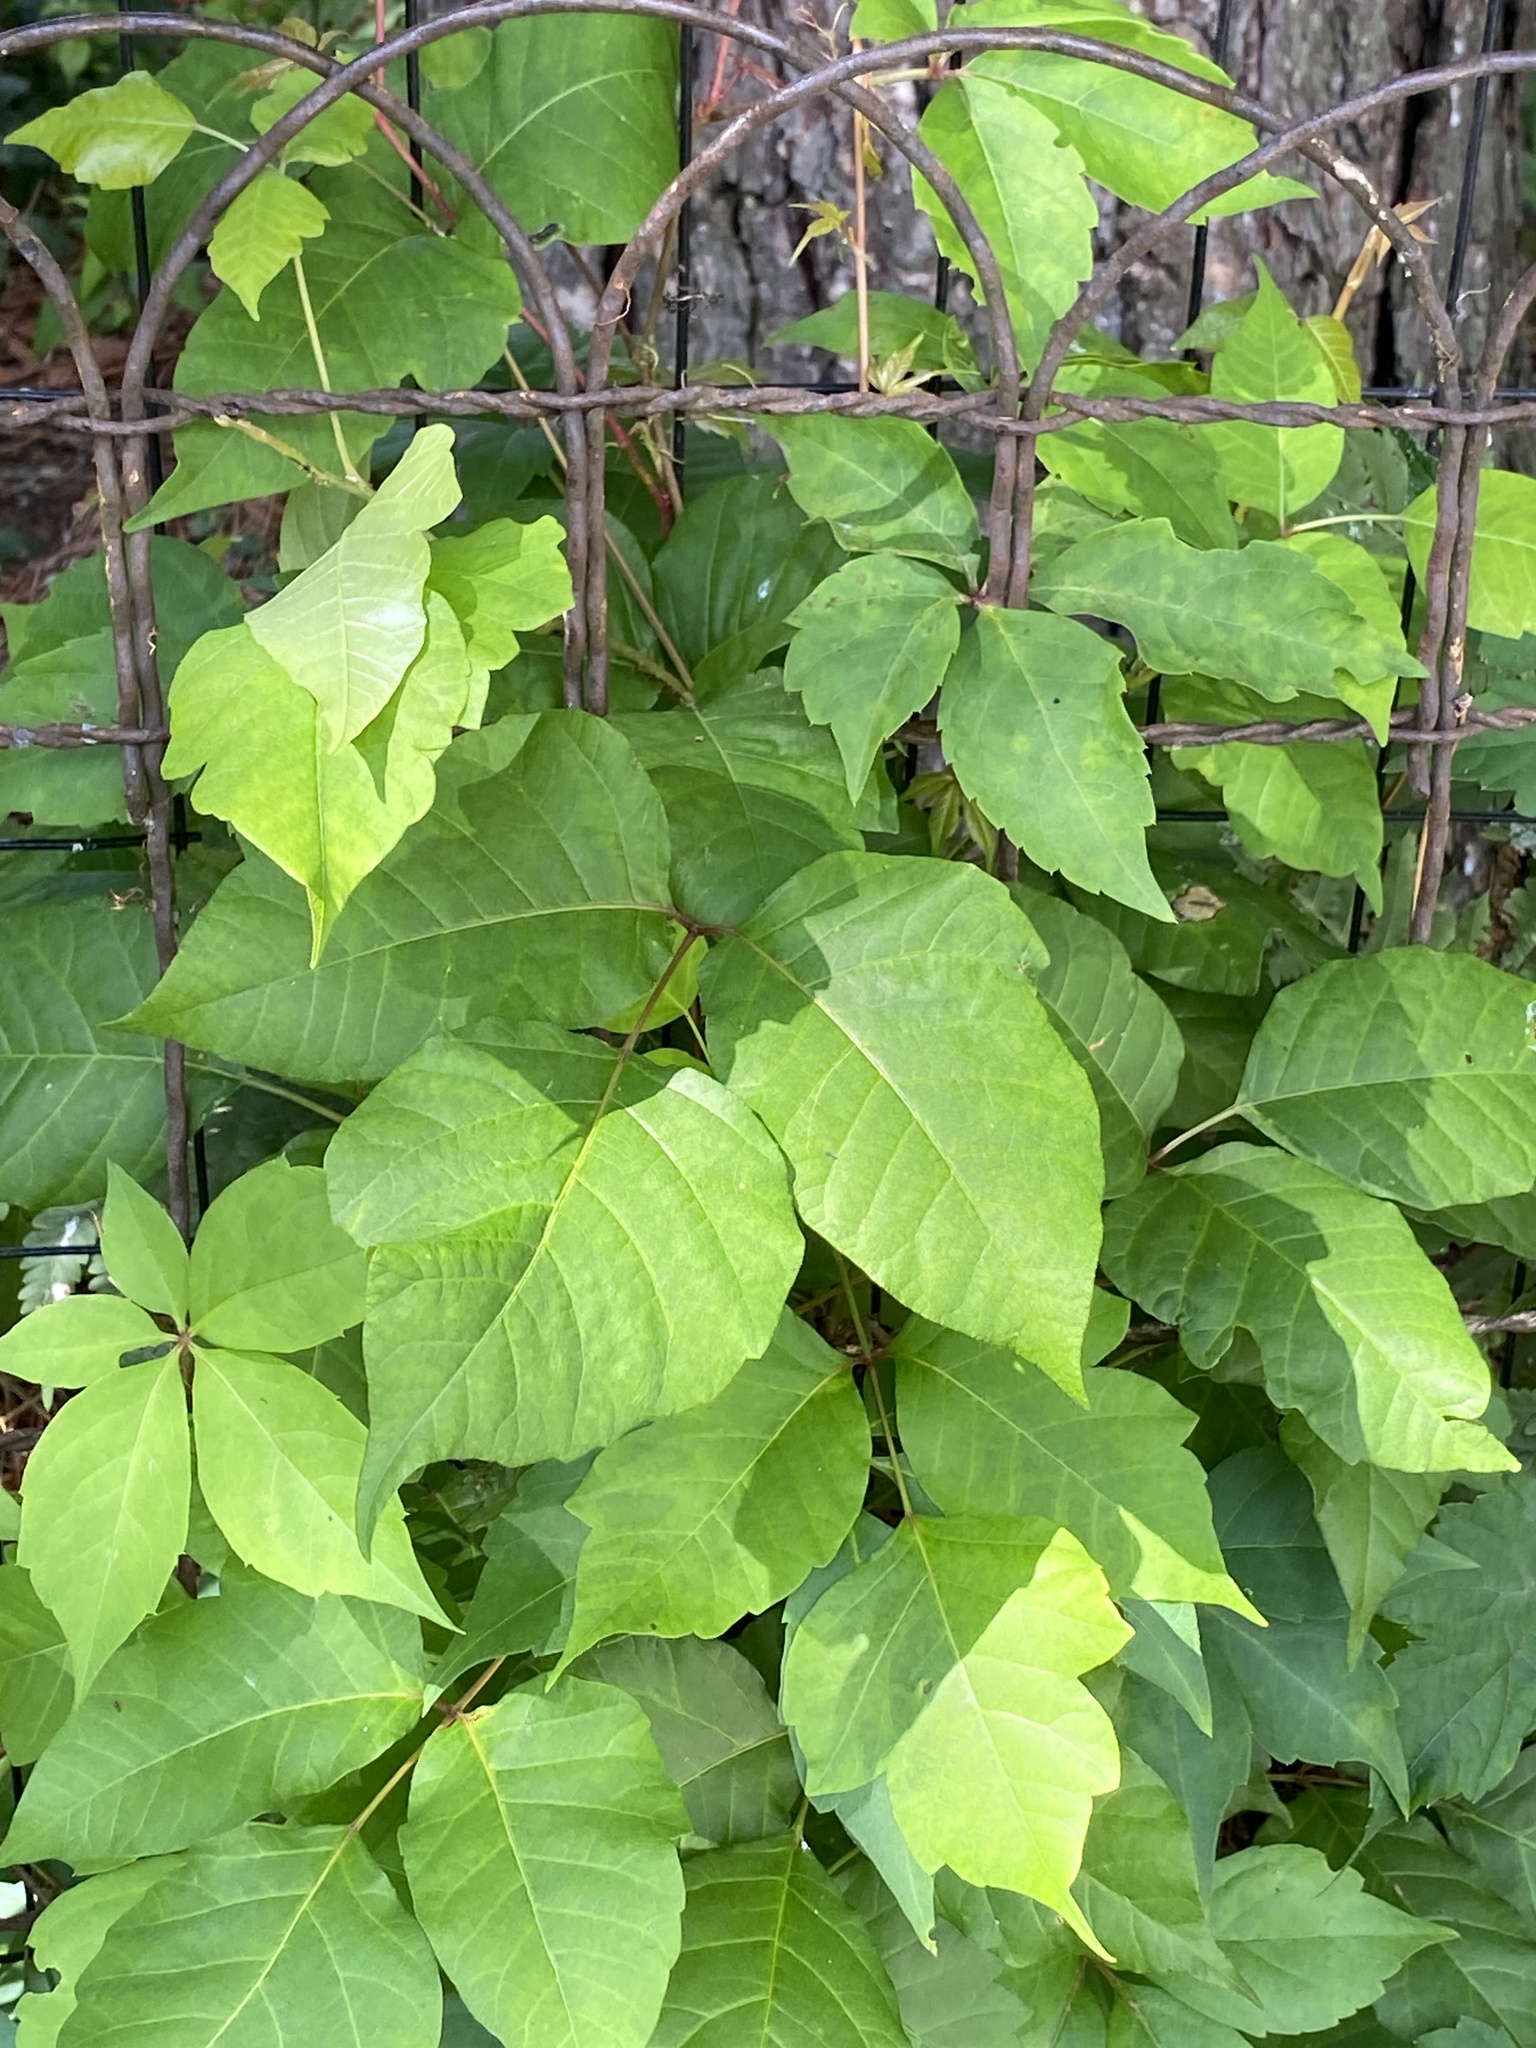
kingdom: Plantae
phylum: Tracheophyta
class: Magnoliopsida
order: Sapindales
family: Anacardiaceae
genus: Toxicodendron
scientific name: Toxicodendron radicans
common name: Poison ivy
